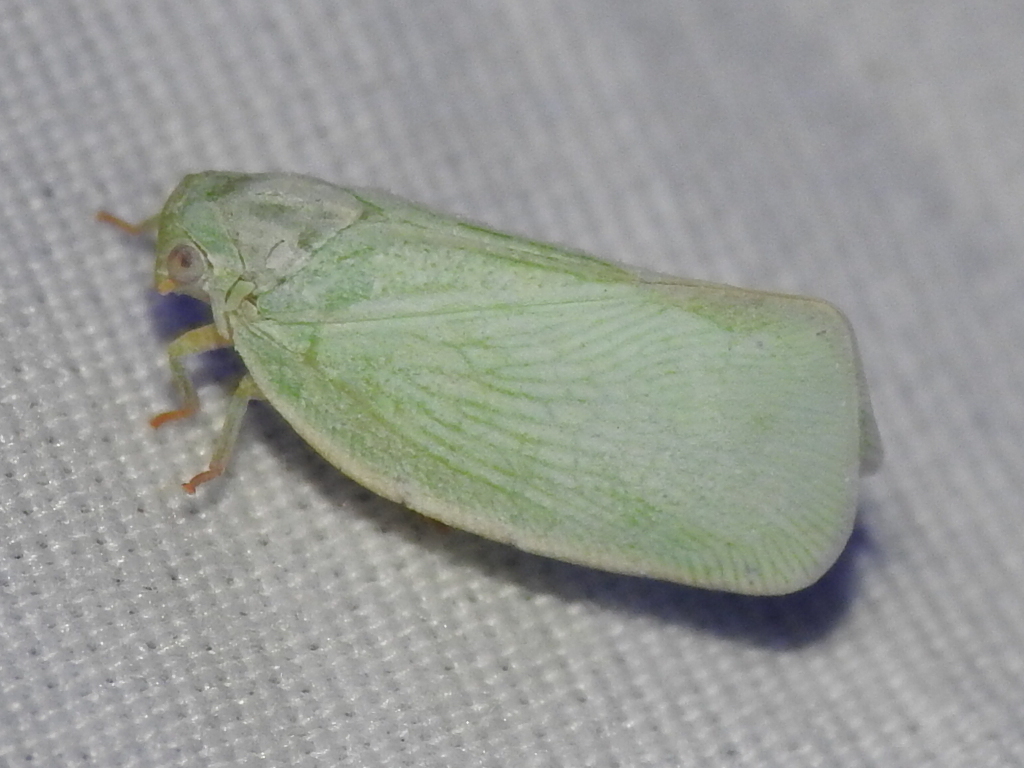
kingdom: Animalia
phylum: Arthropoda
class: Insecta
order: Hemiptera
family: Flatidae
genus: Flatormenis
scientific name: Flatormenis proxima
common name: Northern flatid planthopper
